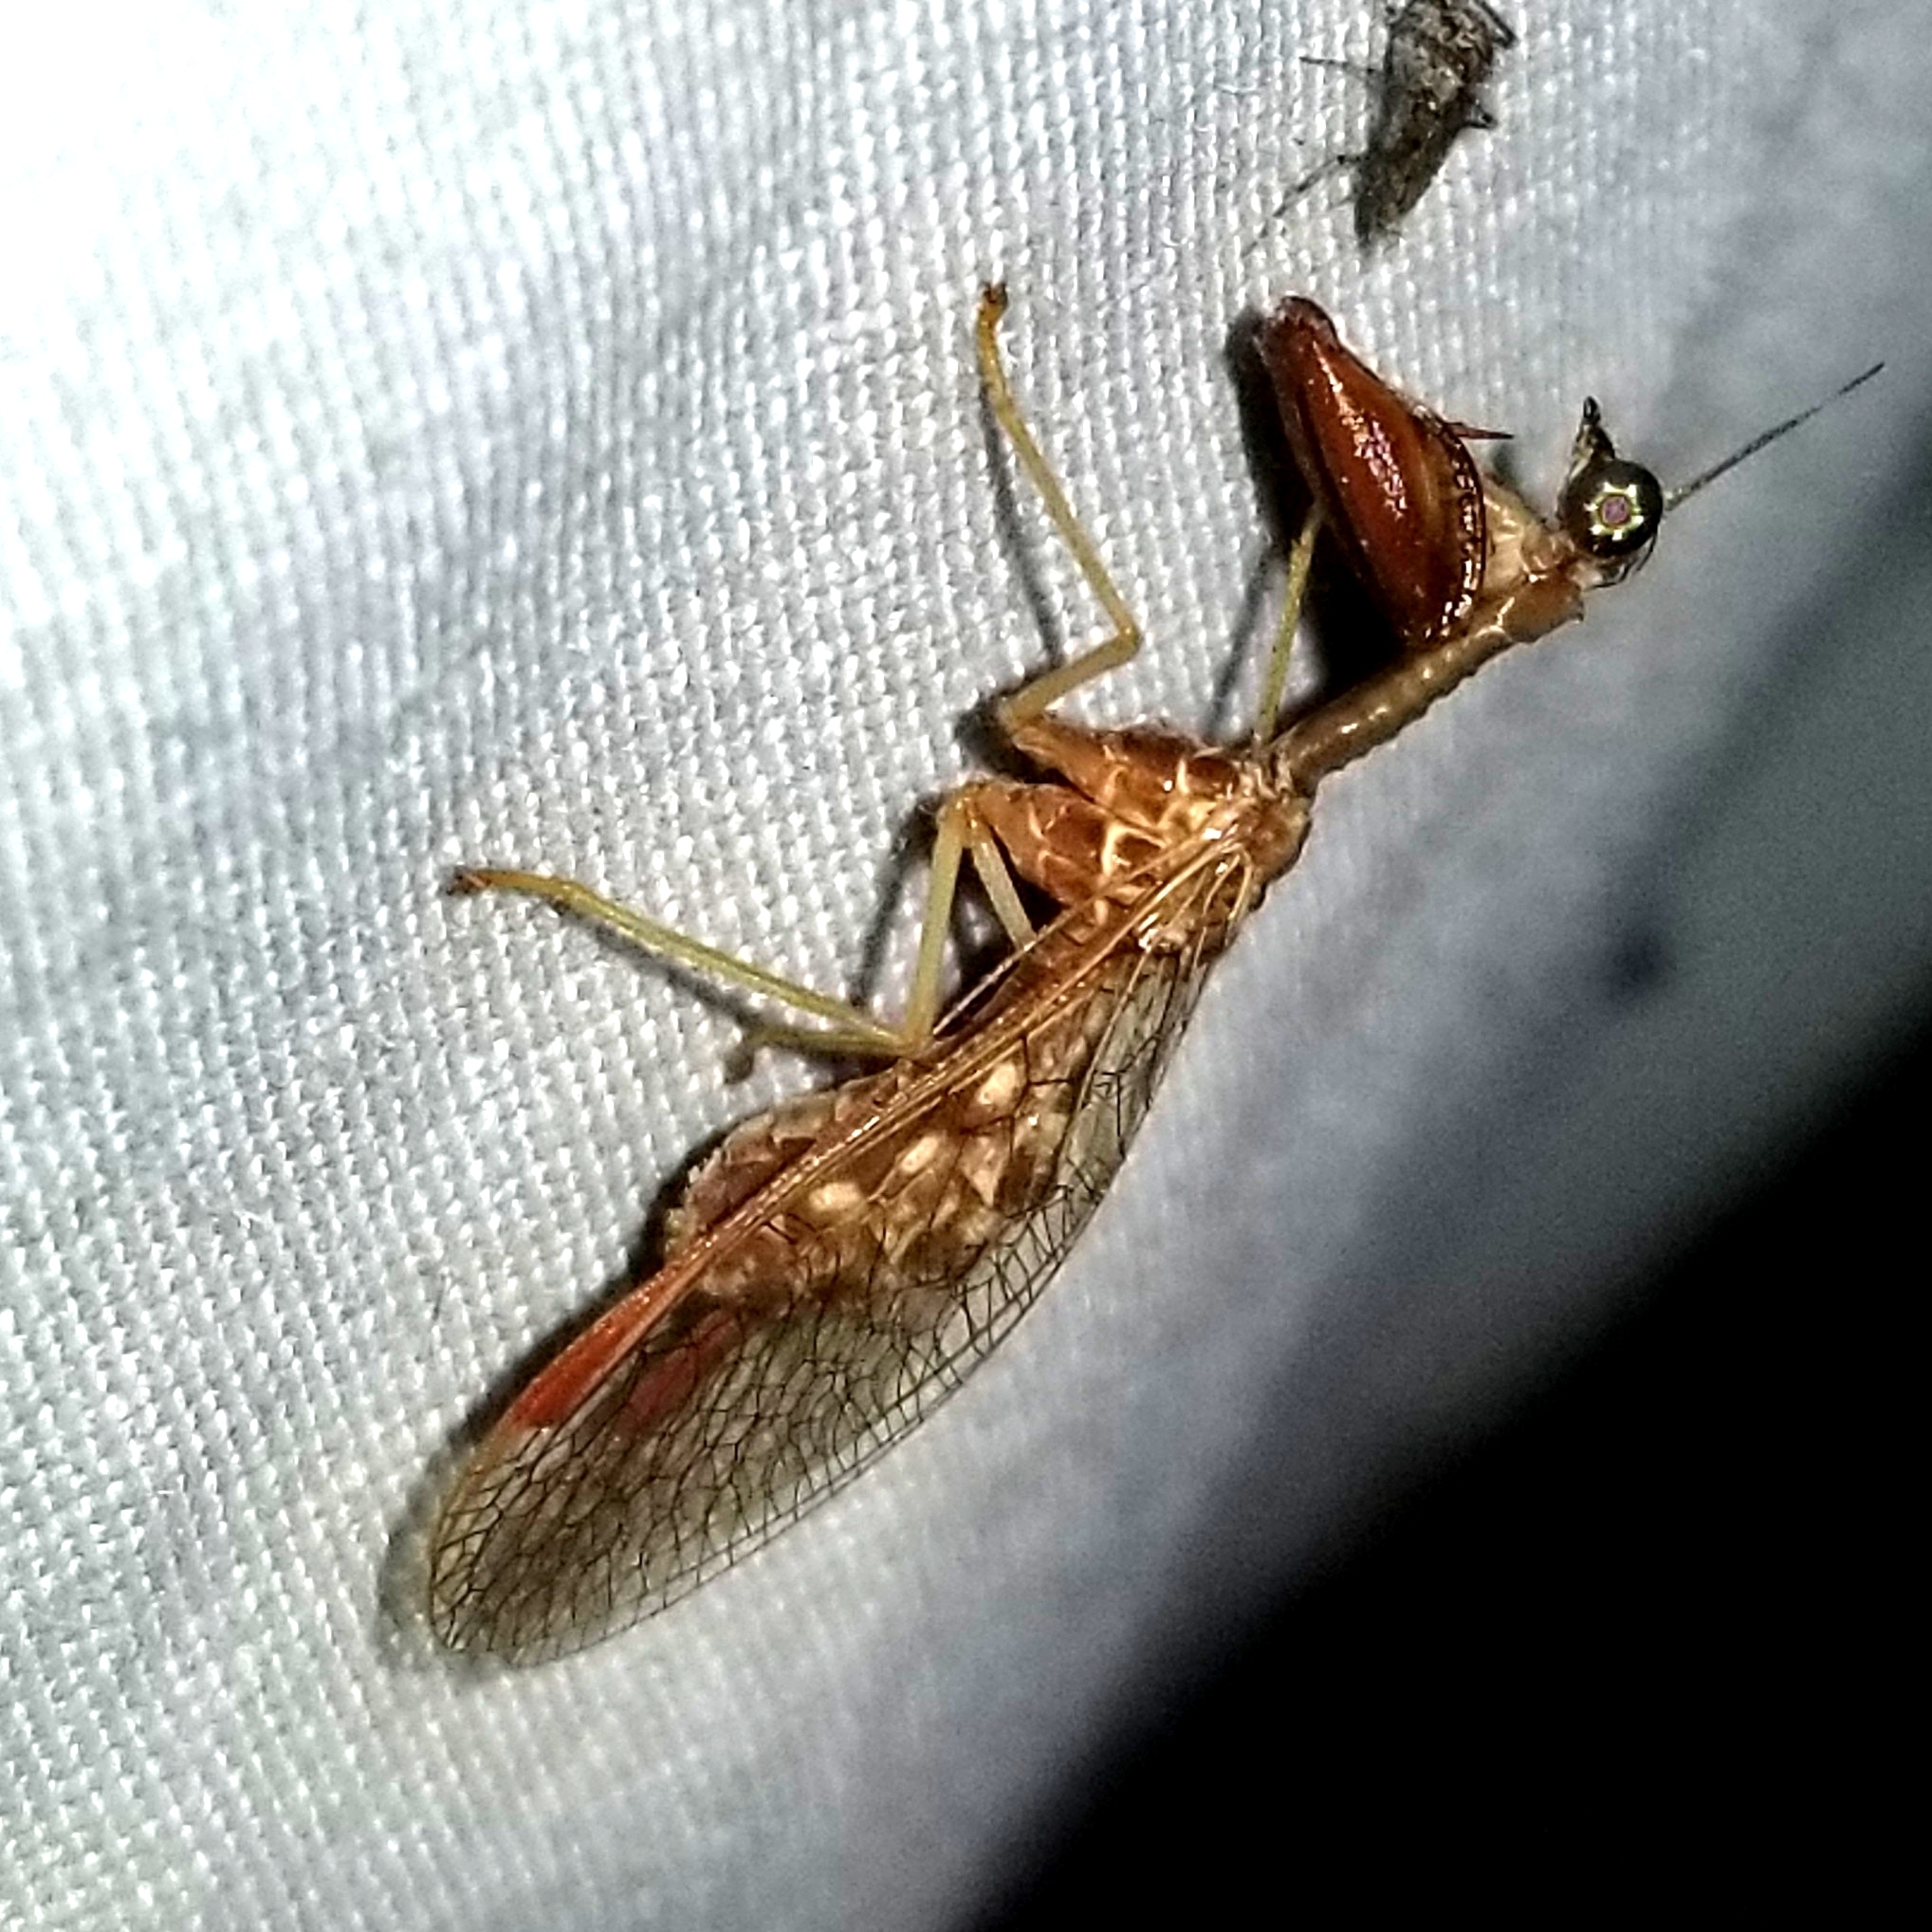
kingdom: Animalia
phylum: Arthropoda
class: Insecta
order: Neuroptera
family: Mantispidae
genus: Dicromantispa
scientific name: Dicromantispa sayi
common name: Say's mantidfly
